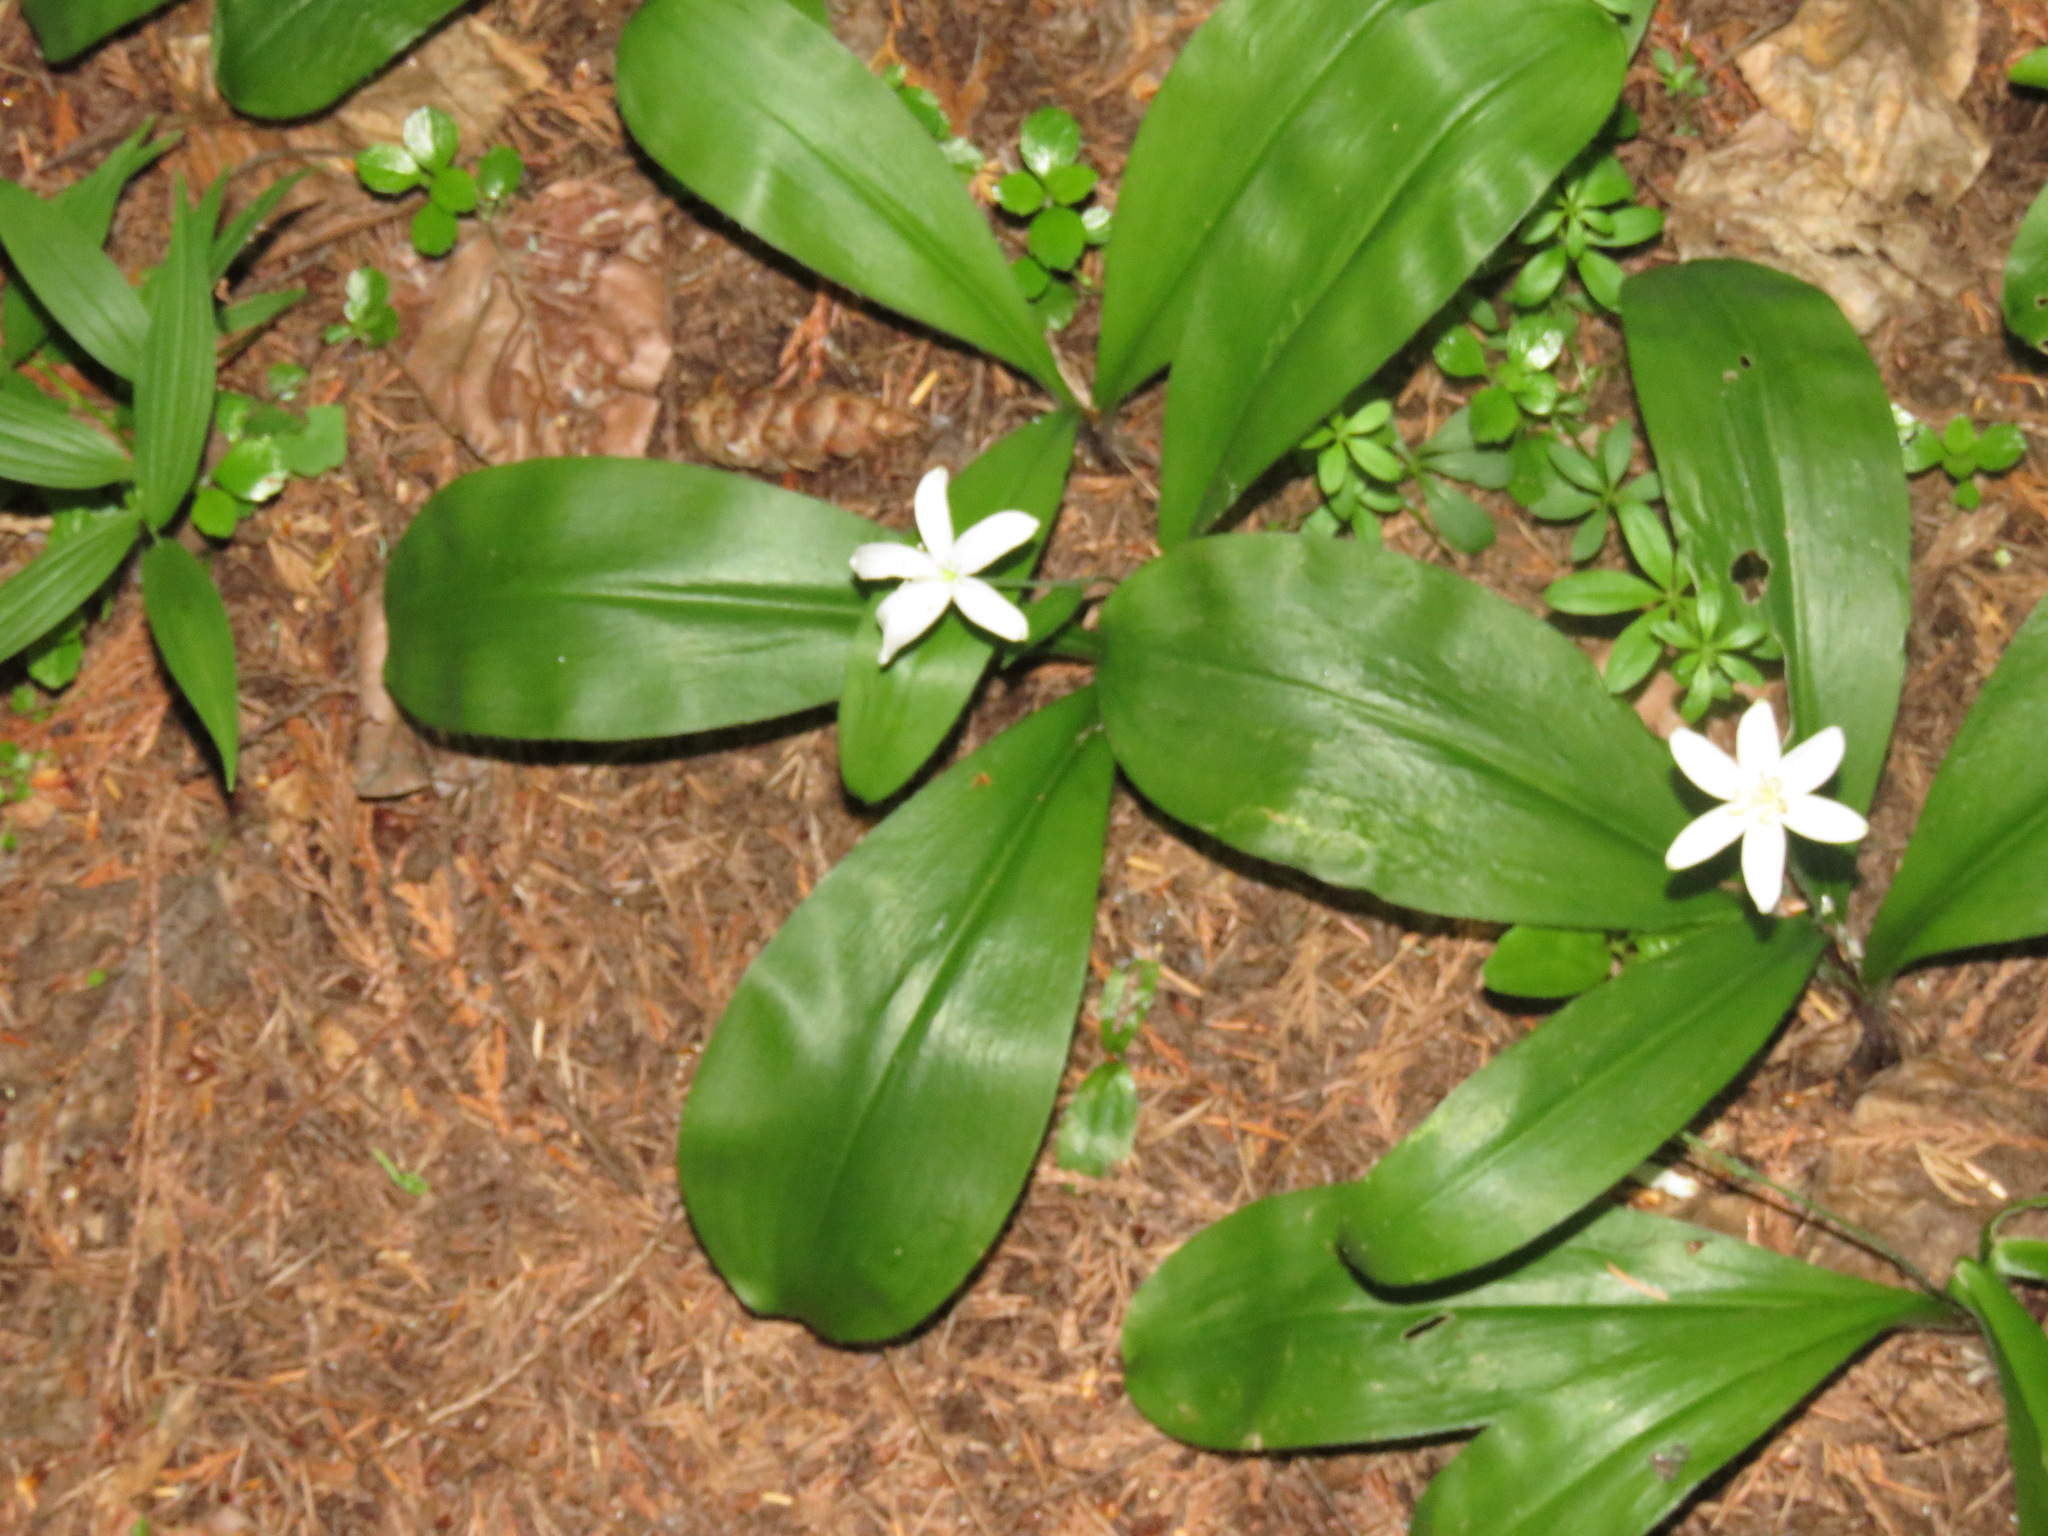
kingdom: Plantae
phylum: Tracheophyta
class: Liliopsida
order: Liliales
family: Liliaceae
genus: Clintonia
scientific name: Clintonia uniflora
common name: Queen's cup
